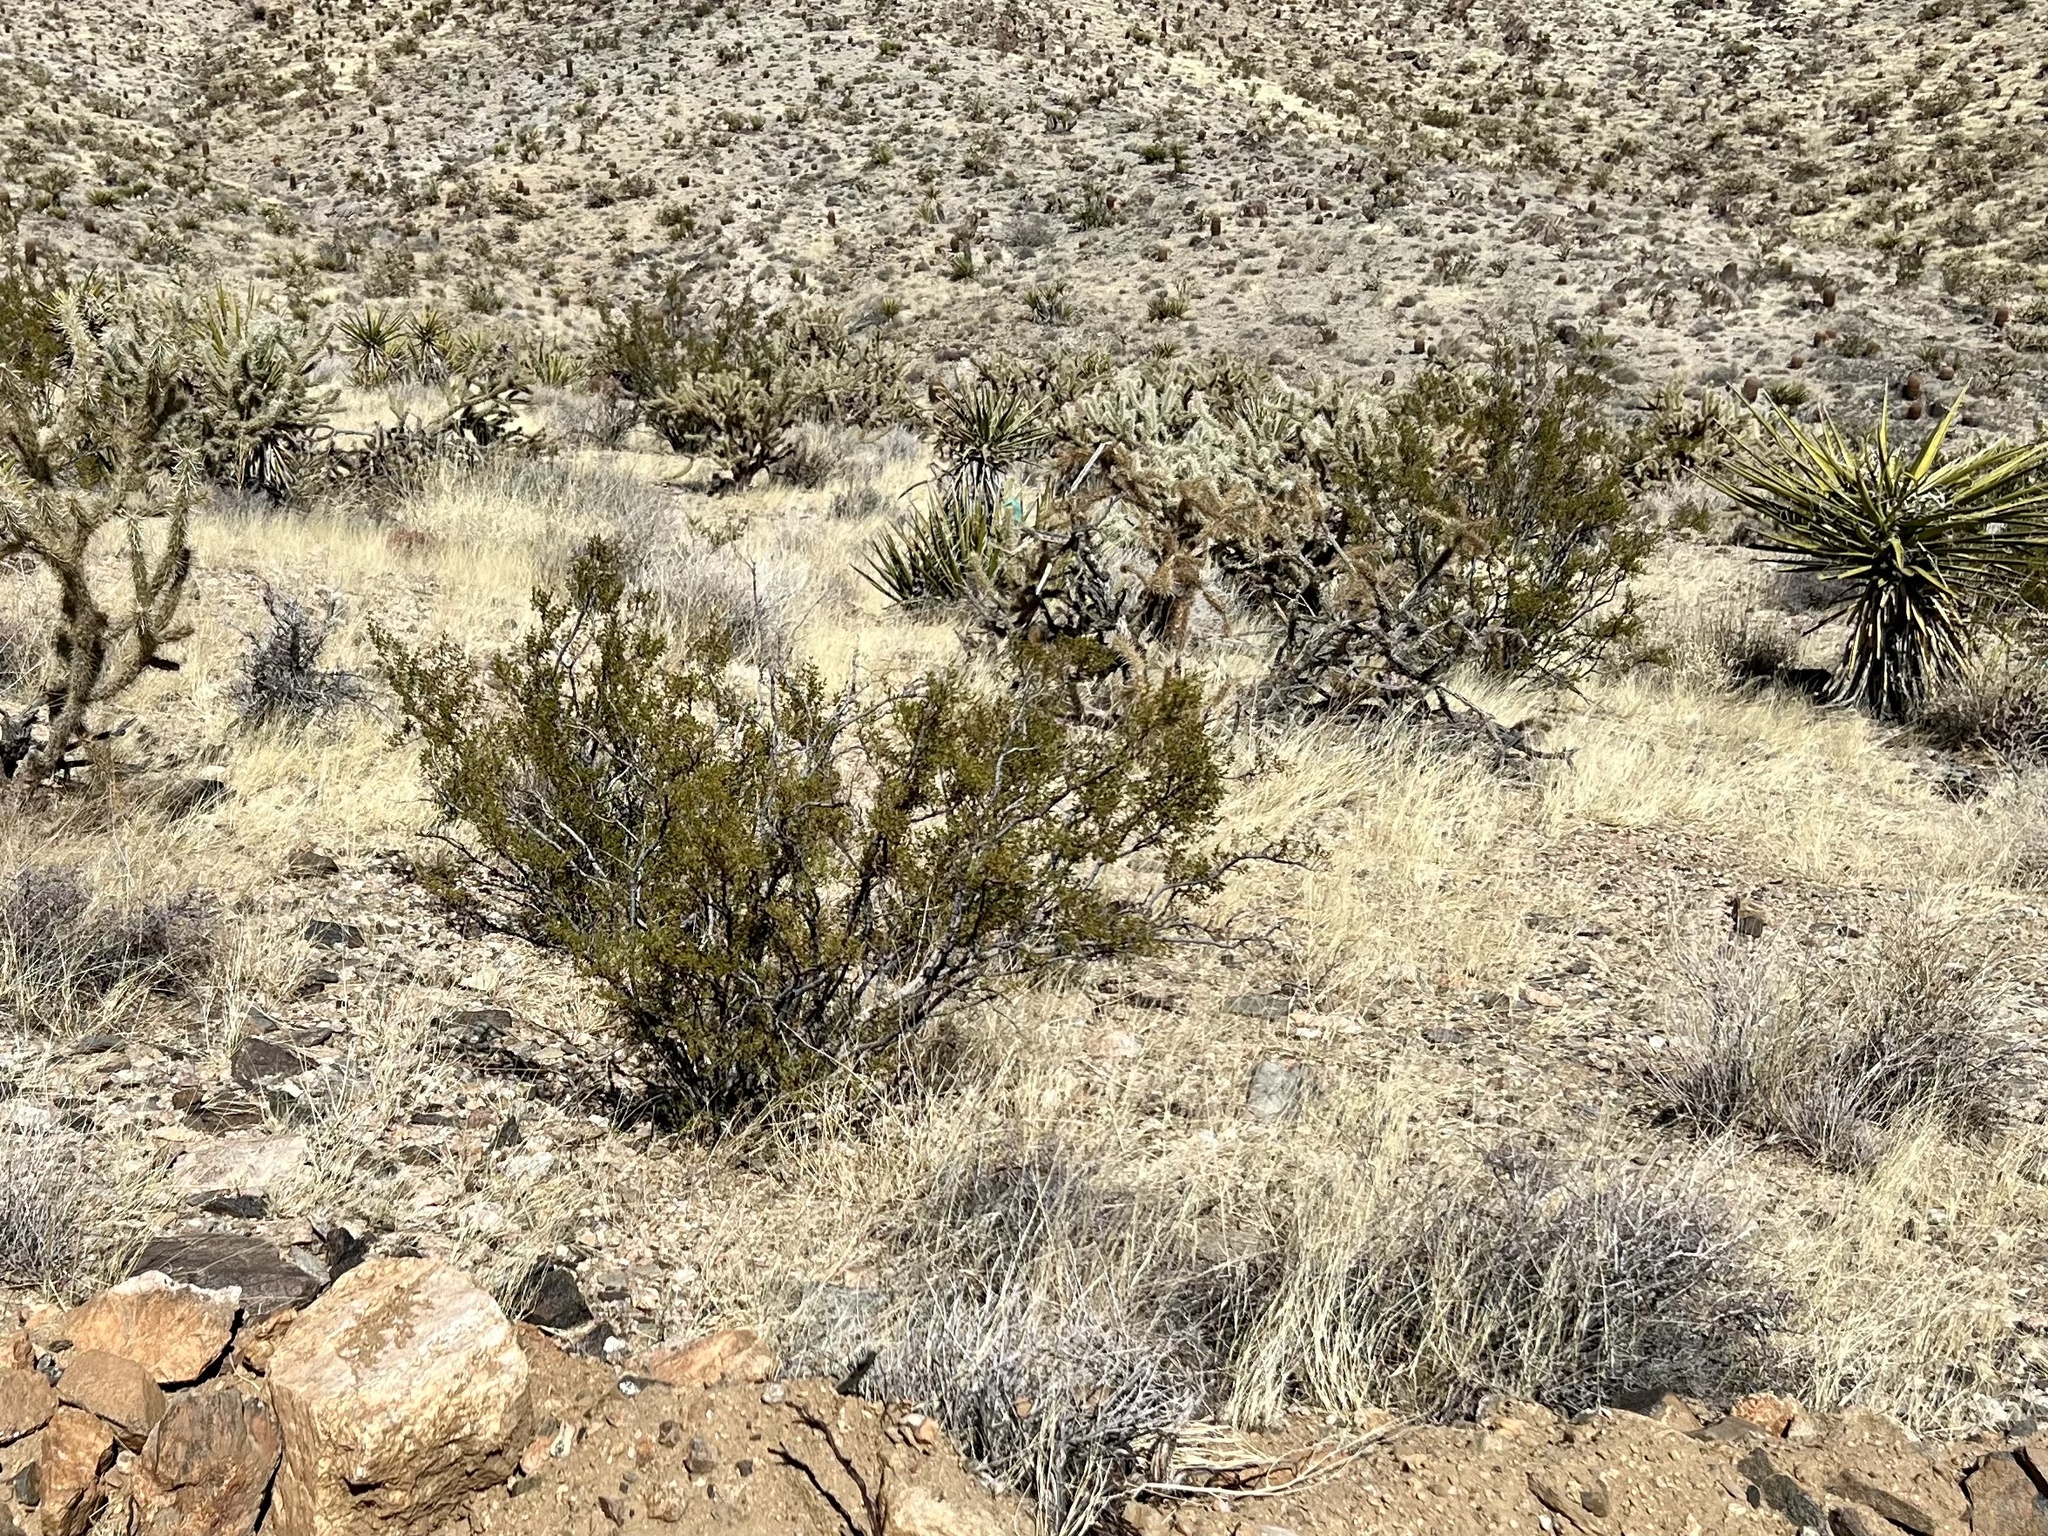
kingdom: Plantae
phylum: Tracheophyta
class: Magnoliopsida
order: Zygophyllales
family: Zygophyllaceae
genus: Larrea
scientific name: Larrea tridentata
